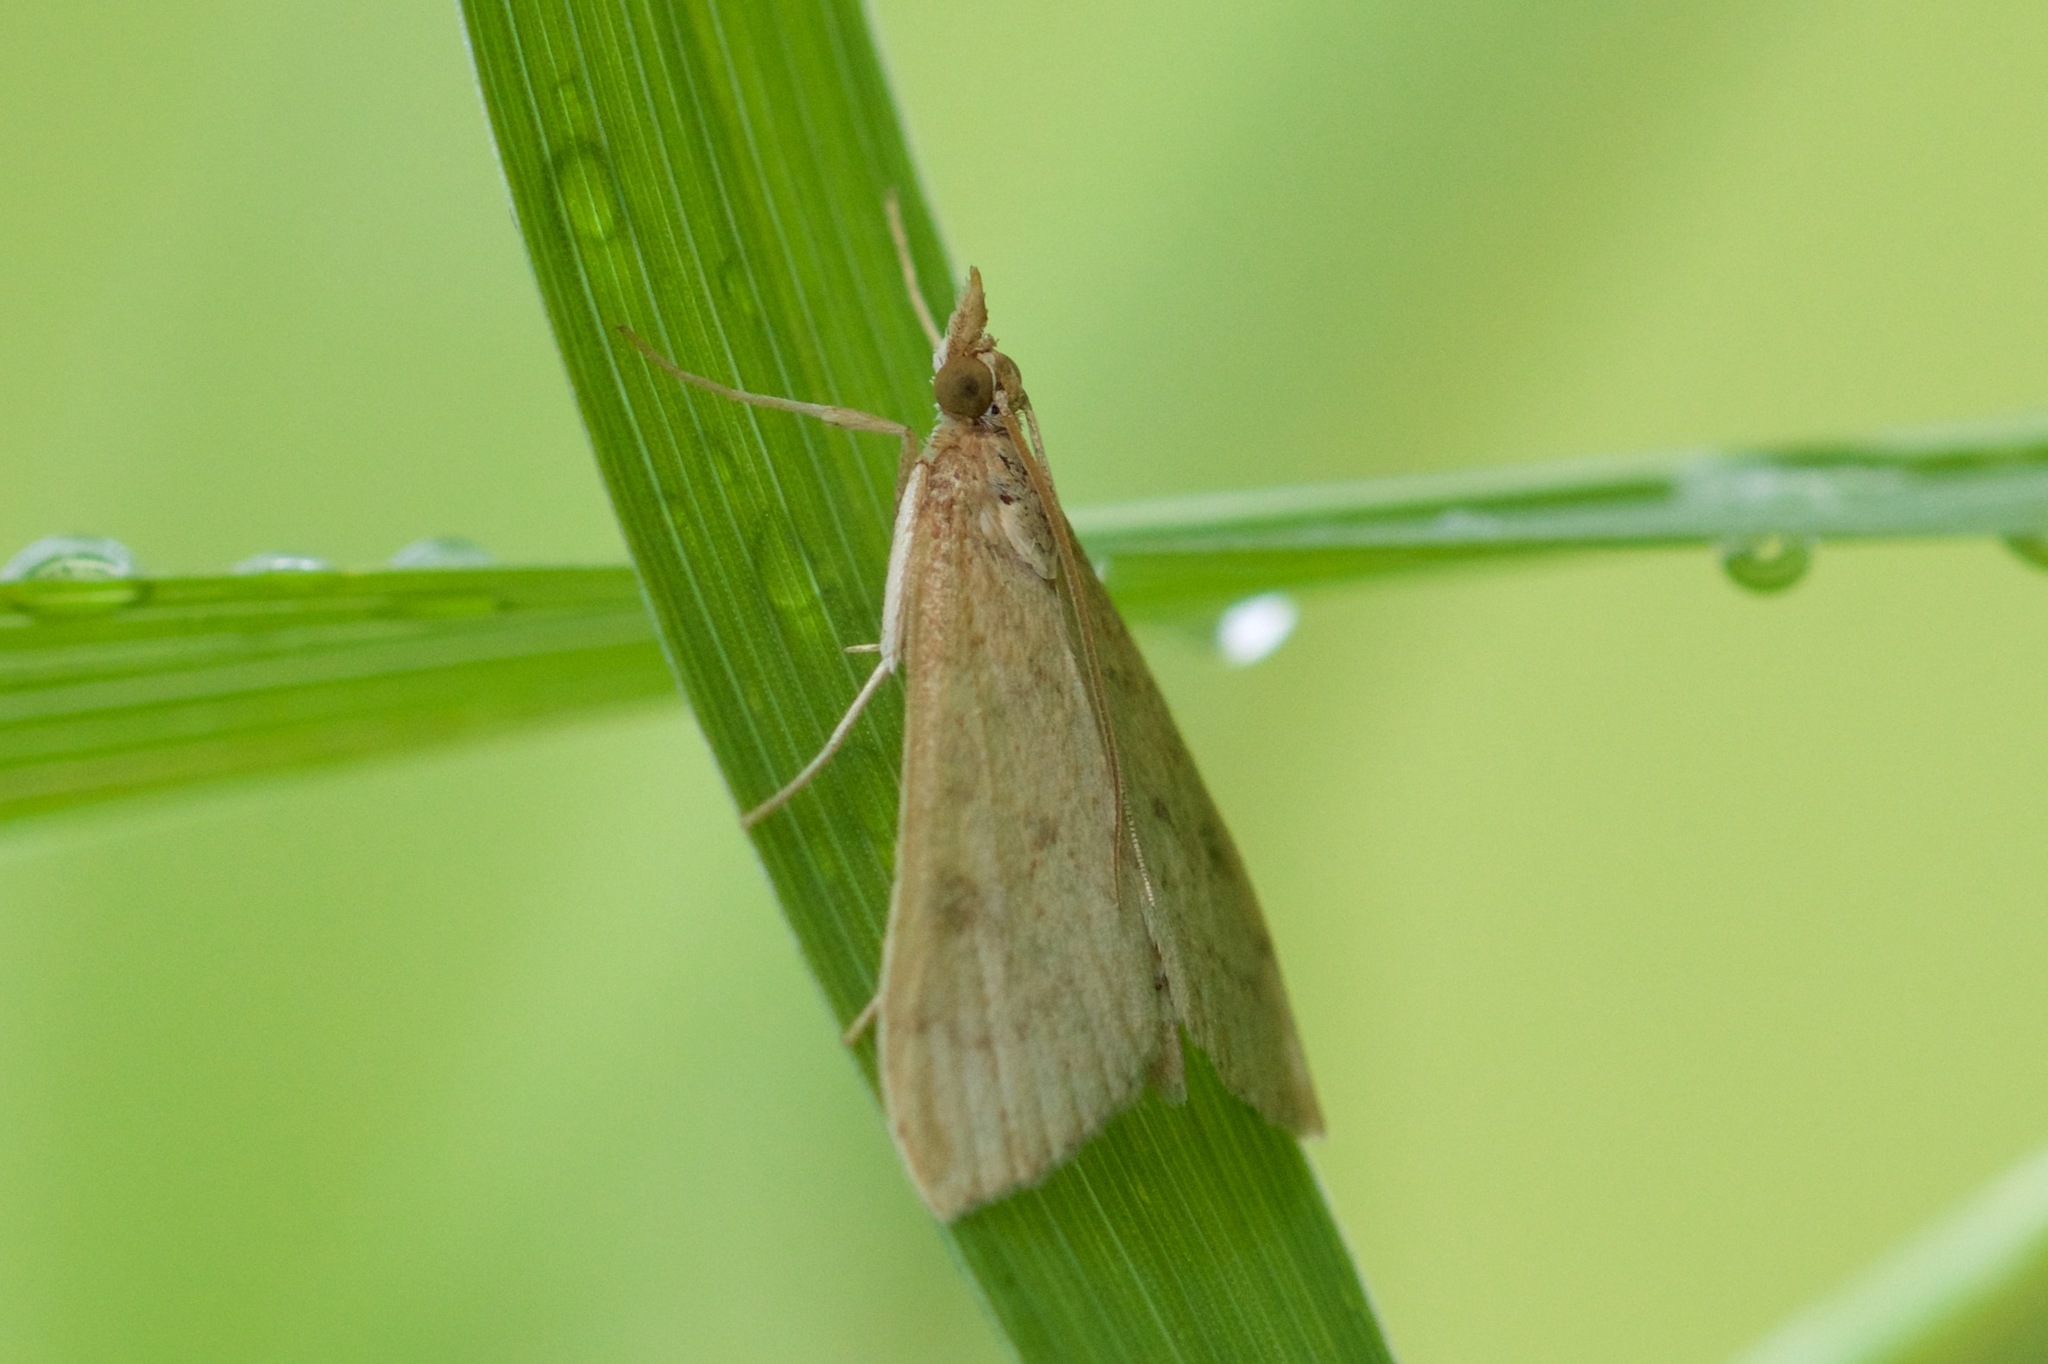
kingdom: Animalia
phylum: Arthropoda
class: Insecta
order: Lepidoptera
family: Crambidae
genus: Udea
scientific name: Udea rubigalis
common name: Celery leaftier moth
